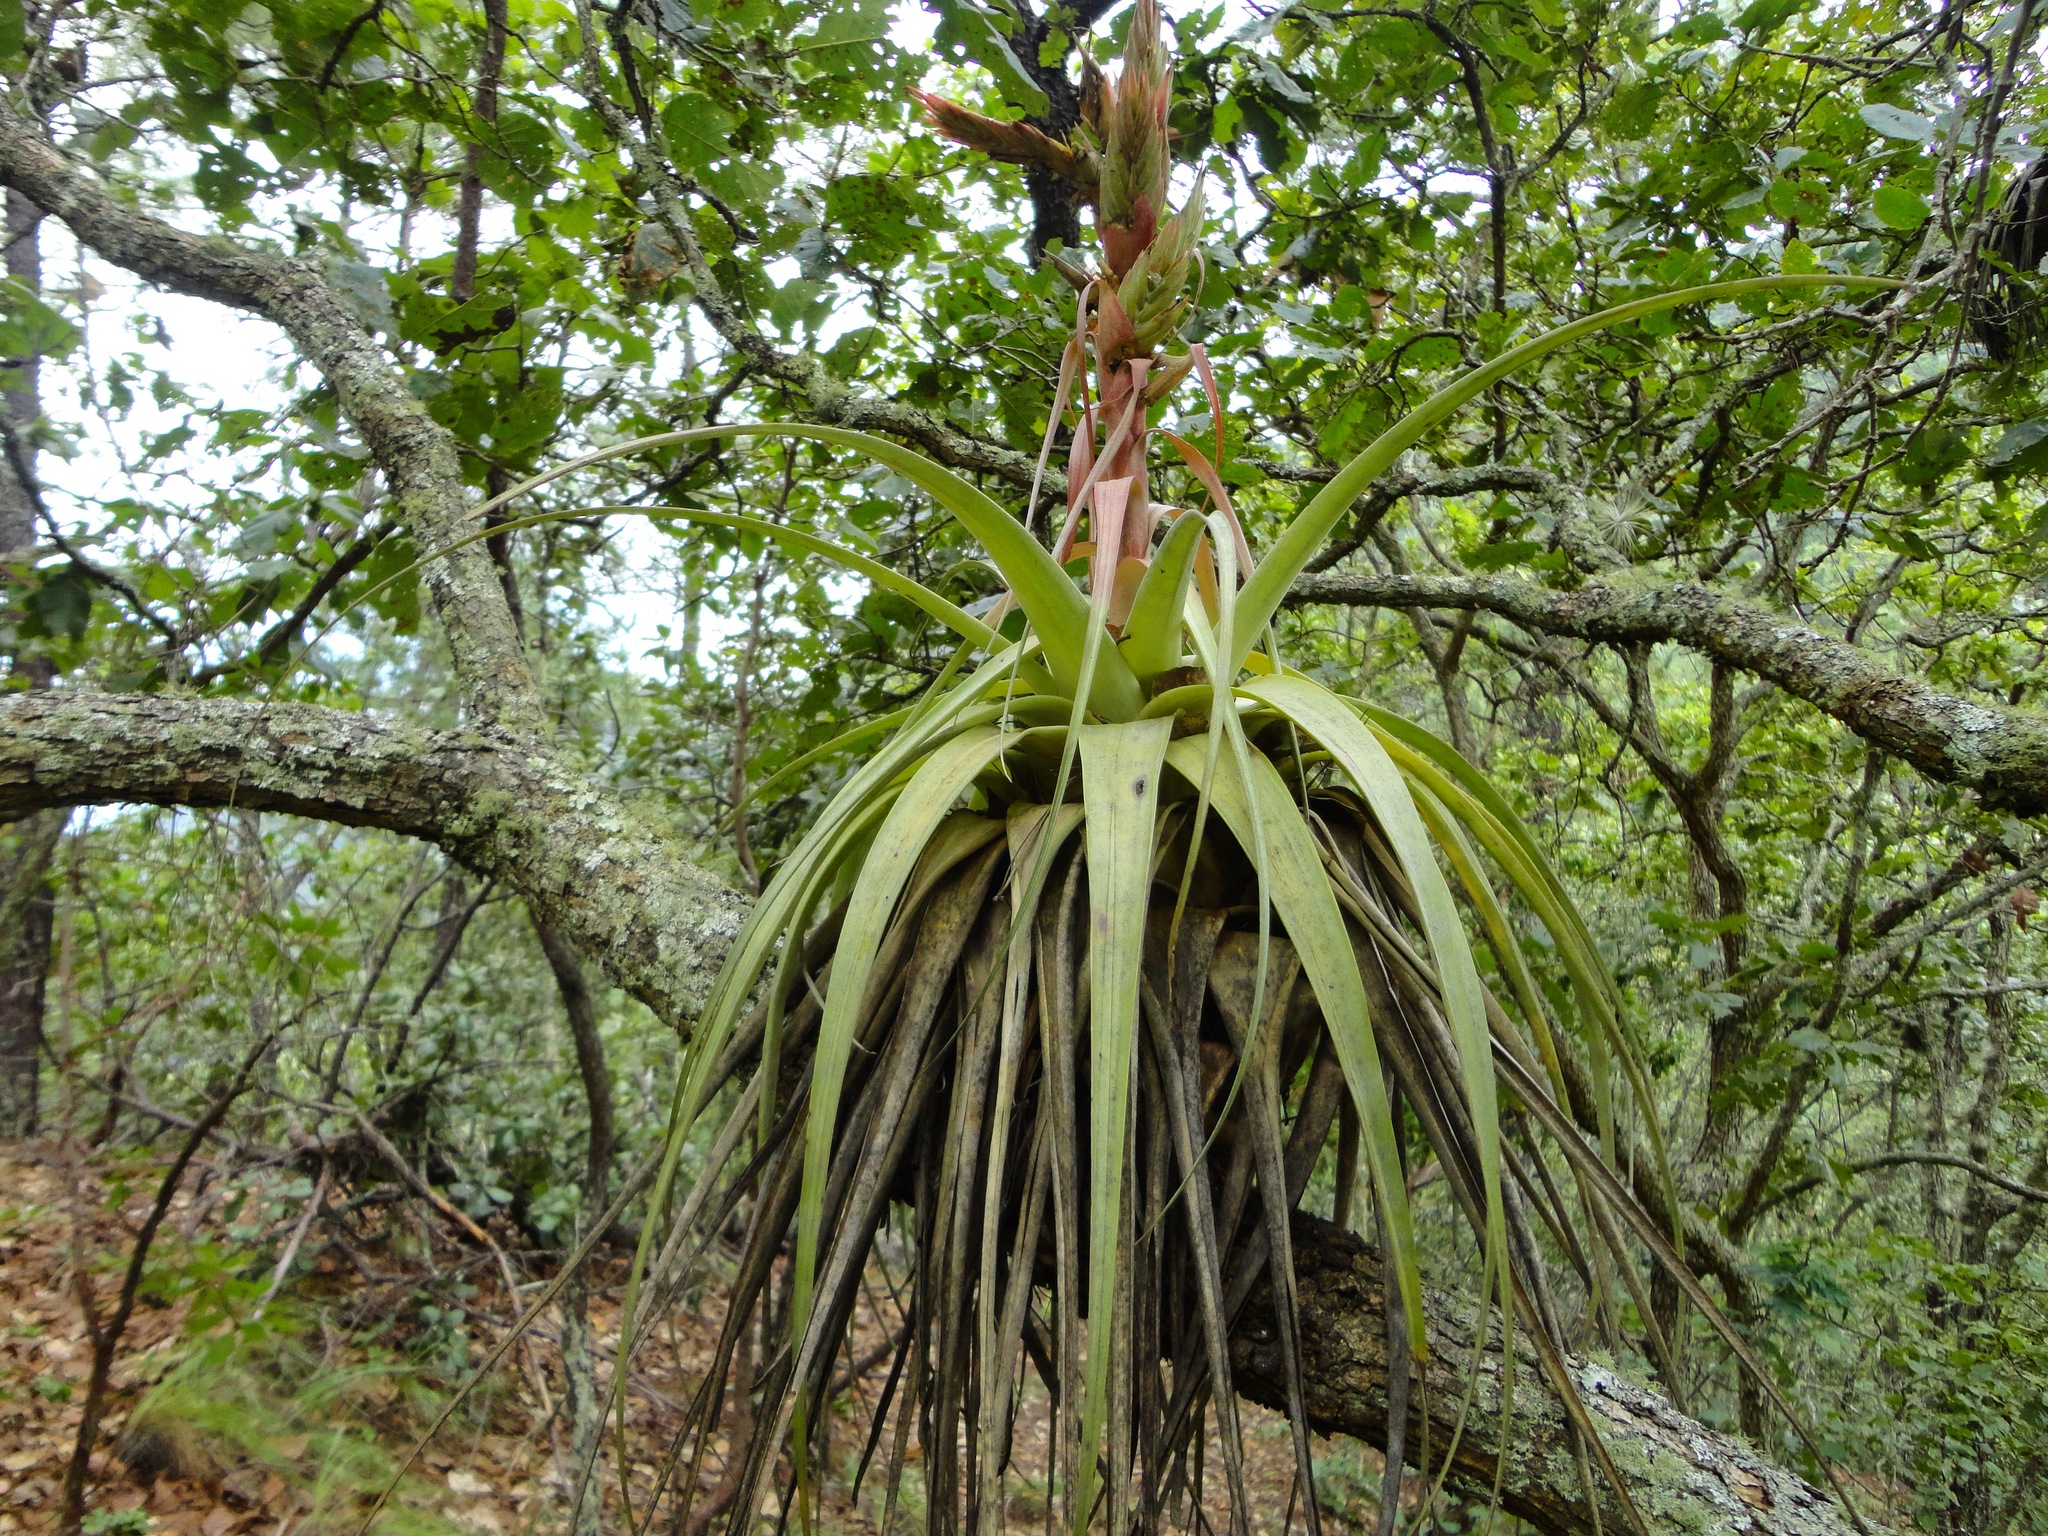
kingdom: Plantae
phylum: Tracheophyta
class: Liliopsida
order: Poales
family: Bromeliaceae
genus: Tillandsia
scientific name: Tillandsia carlos-hankii
